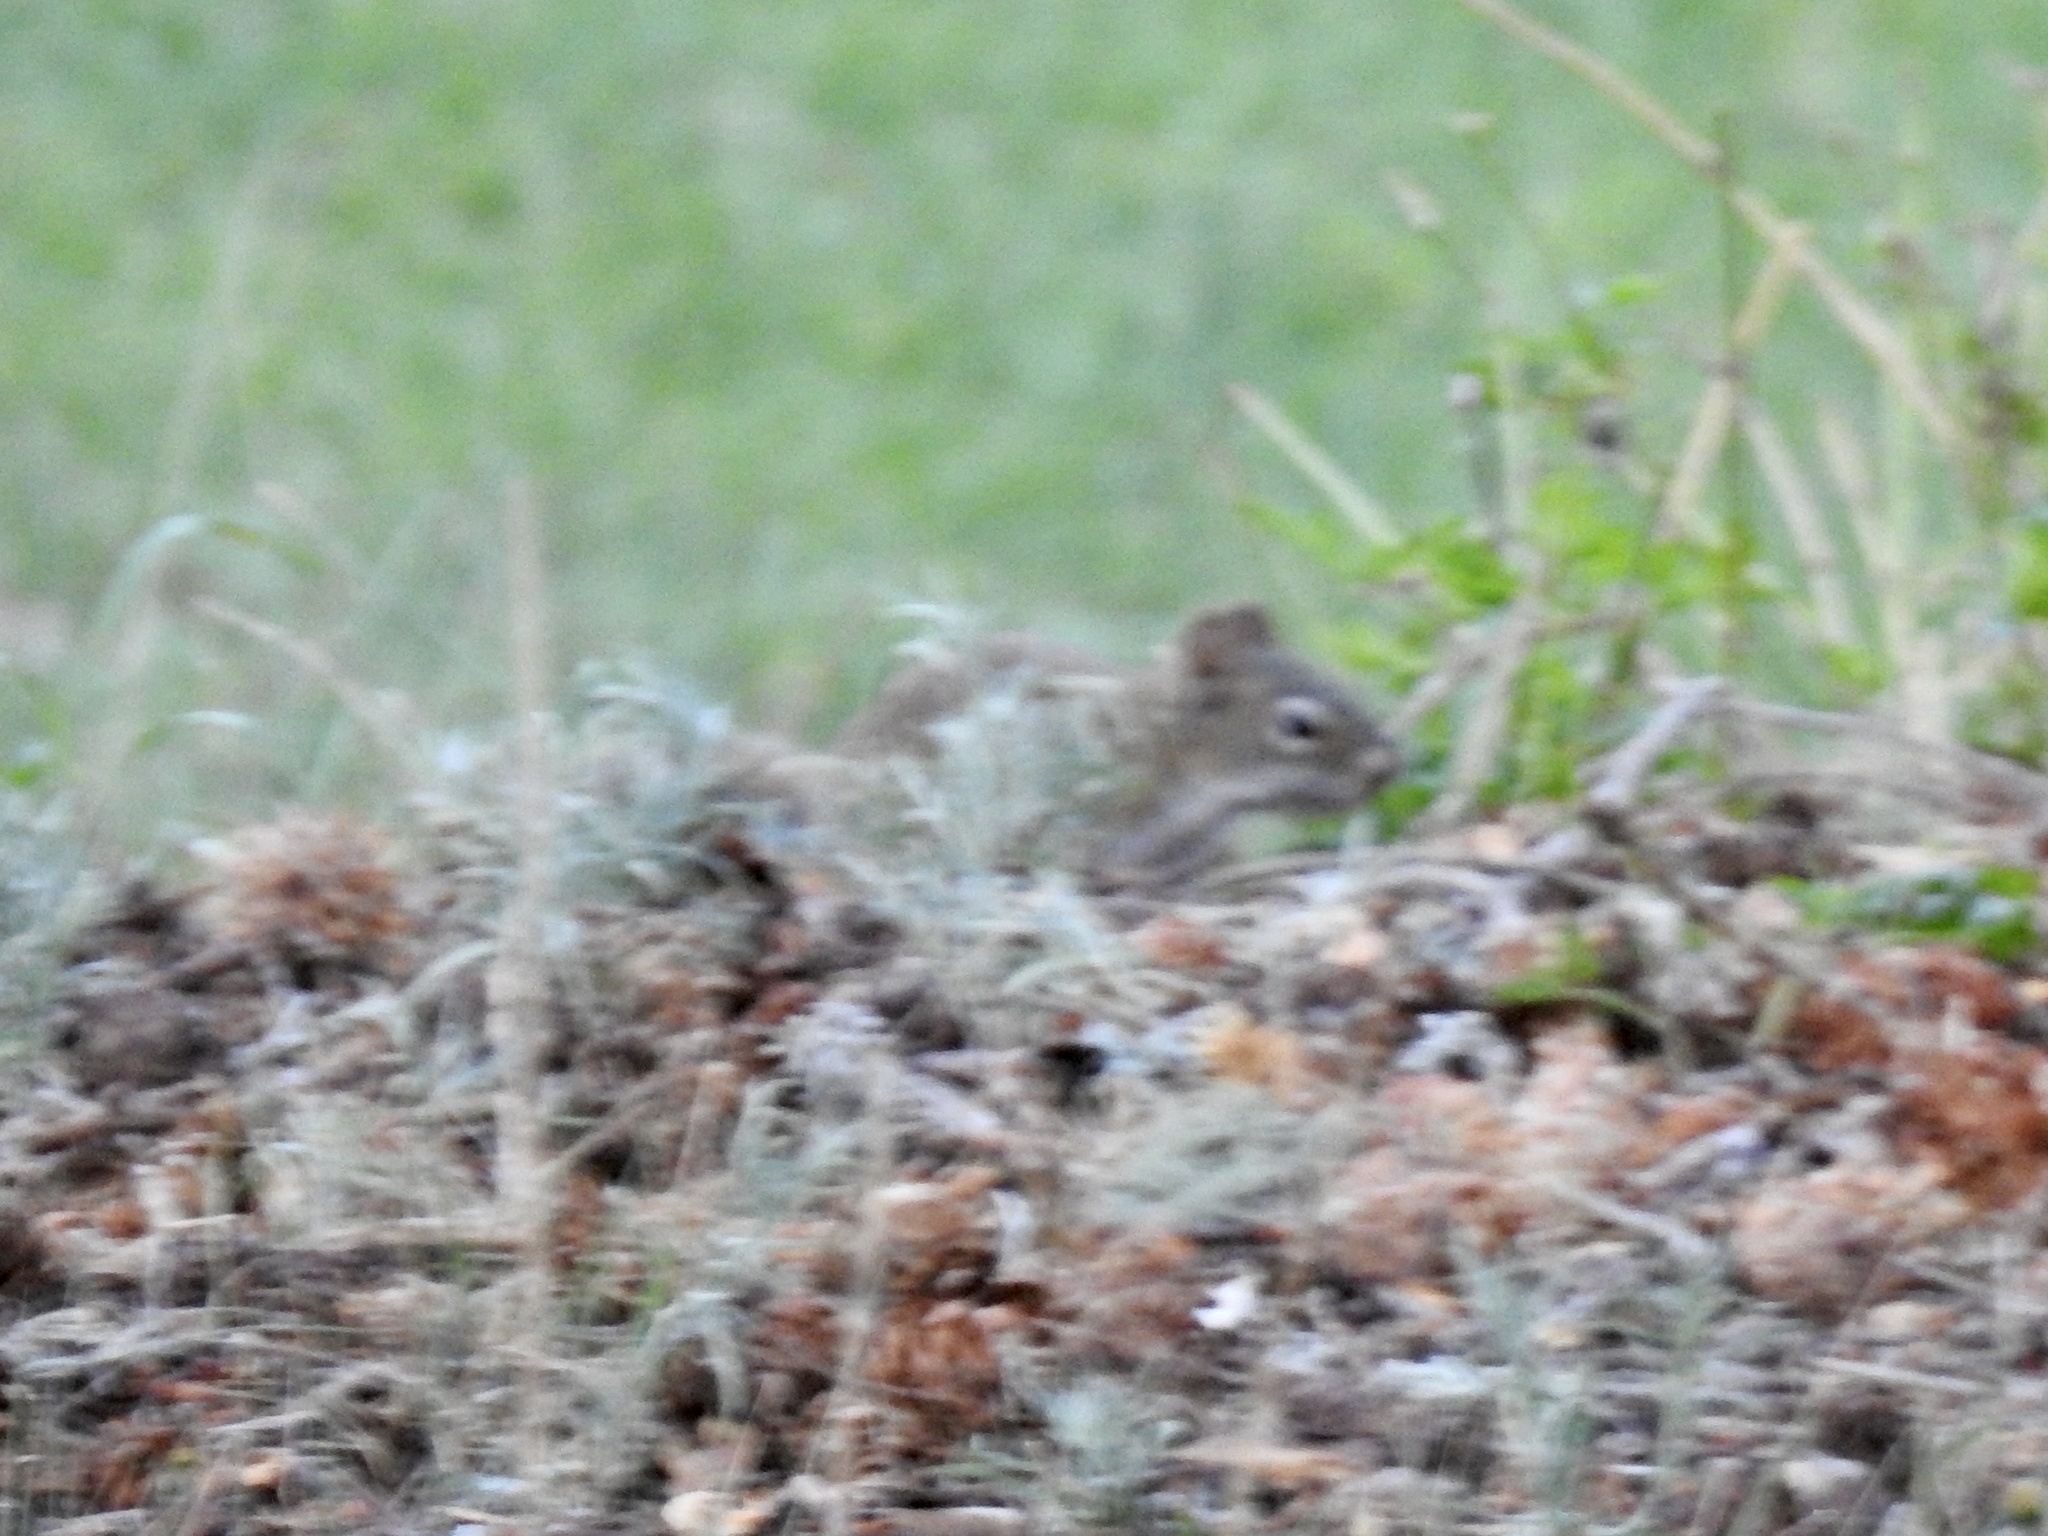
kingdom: Animalia
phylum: Chordata
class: Mammalia
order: Rodentia
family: Sciuridae
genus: Tamiasciurus
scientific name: Tamiasciurus hudsonicus
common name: Red squirrel
